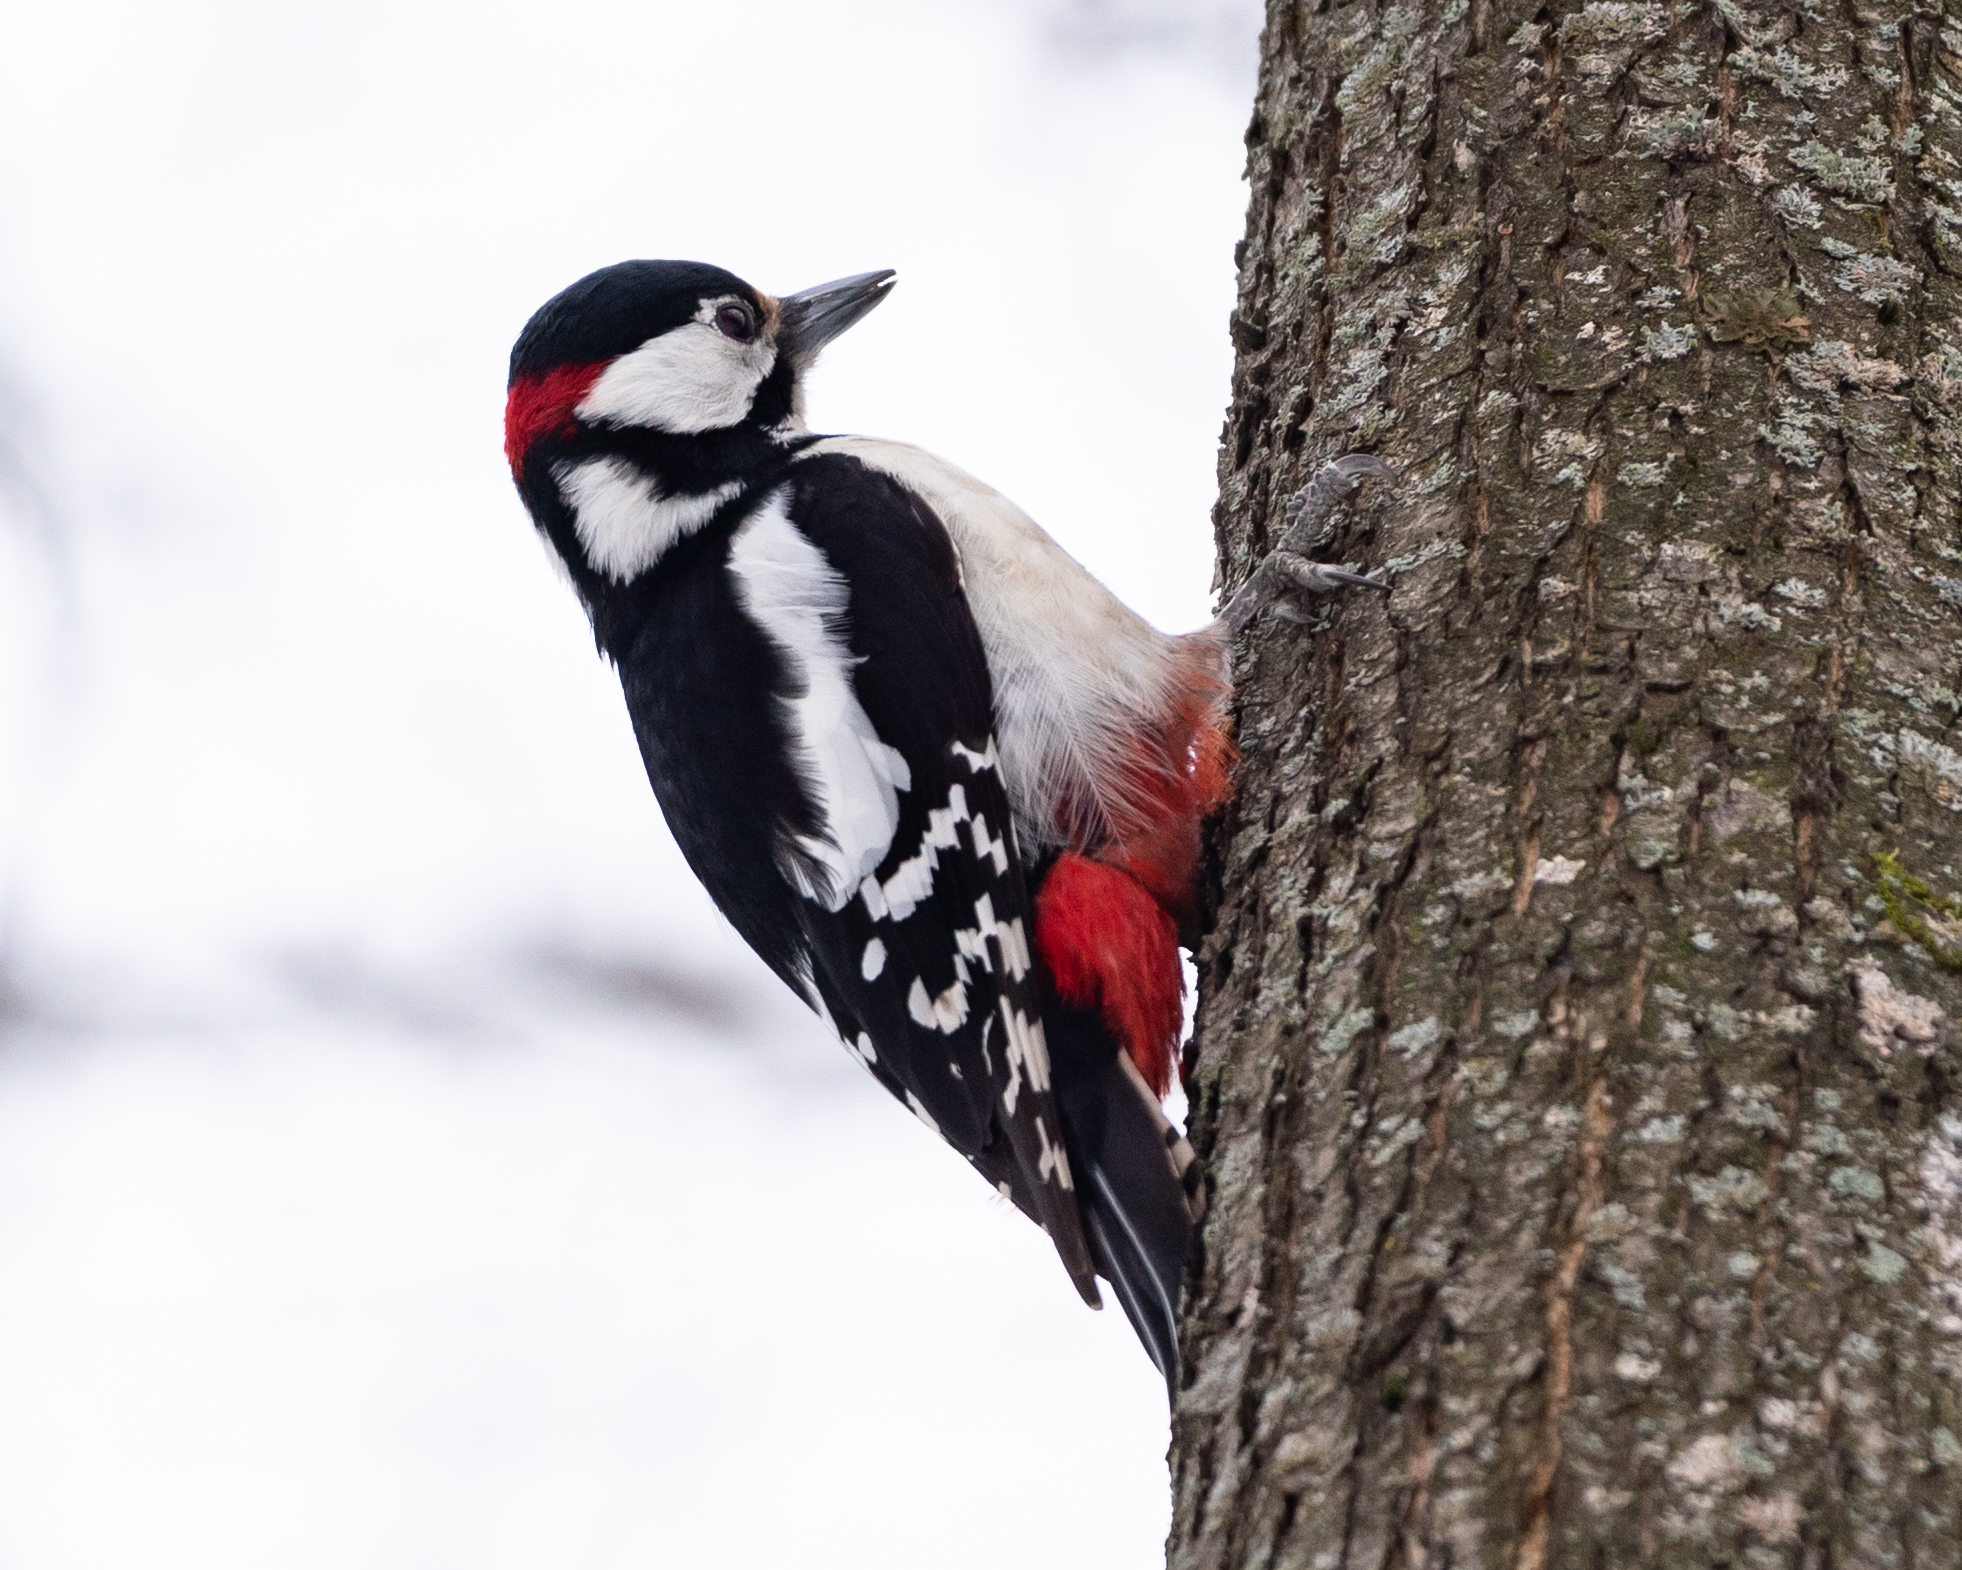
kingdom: Animalia
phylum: Chordata
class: Aves
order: Piciformes
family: Picidae
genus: Dendrocopos
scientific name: Dendrocopos major
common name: Great spotted woodpecker
